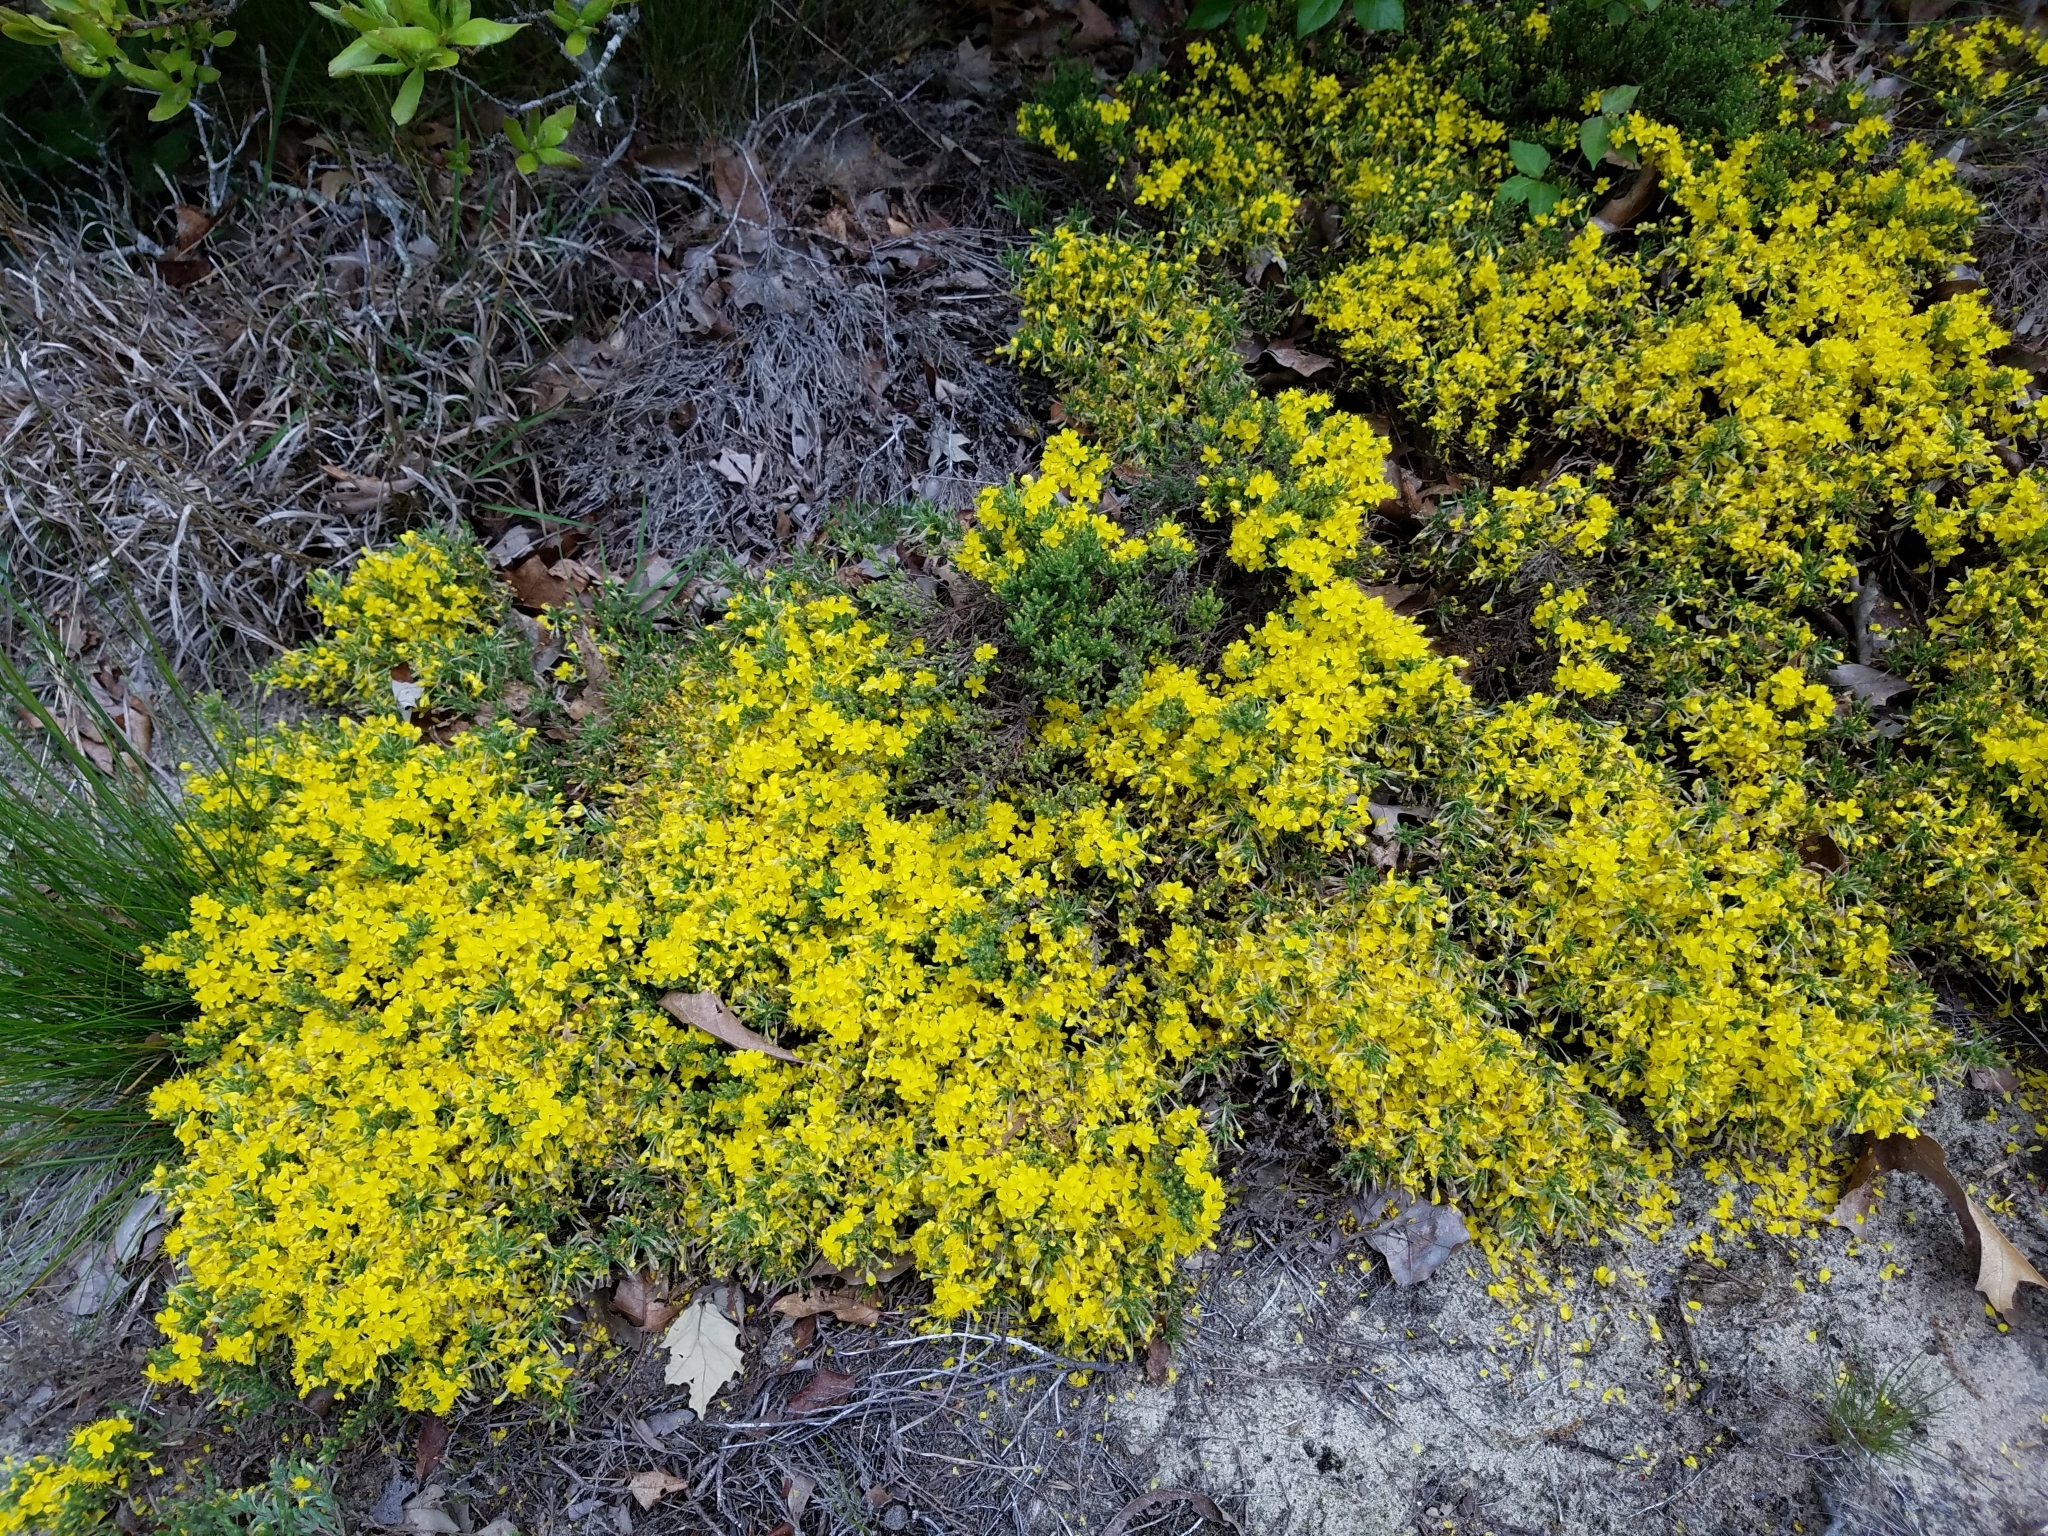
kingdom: Plantae
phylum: Tracheophyta
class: Magnoliopsida
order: Malvales
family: Cistaceae
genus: Hudsonia
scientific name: Hudsonia ericoides
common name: Golden-heather
